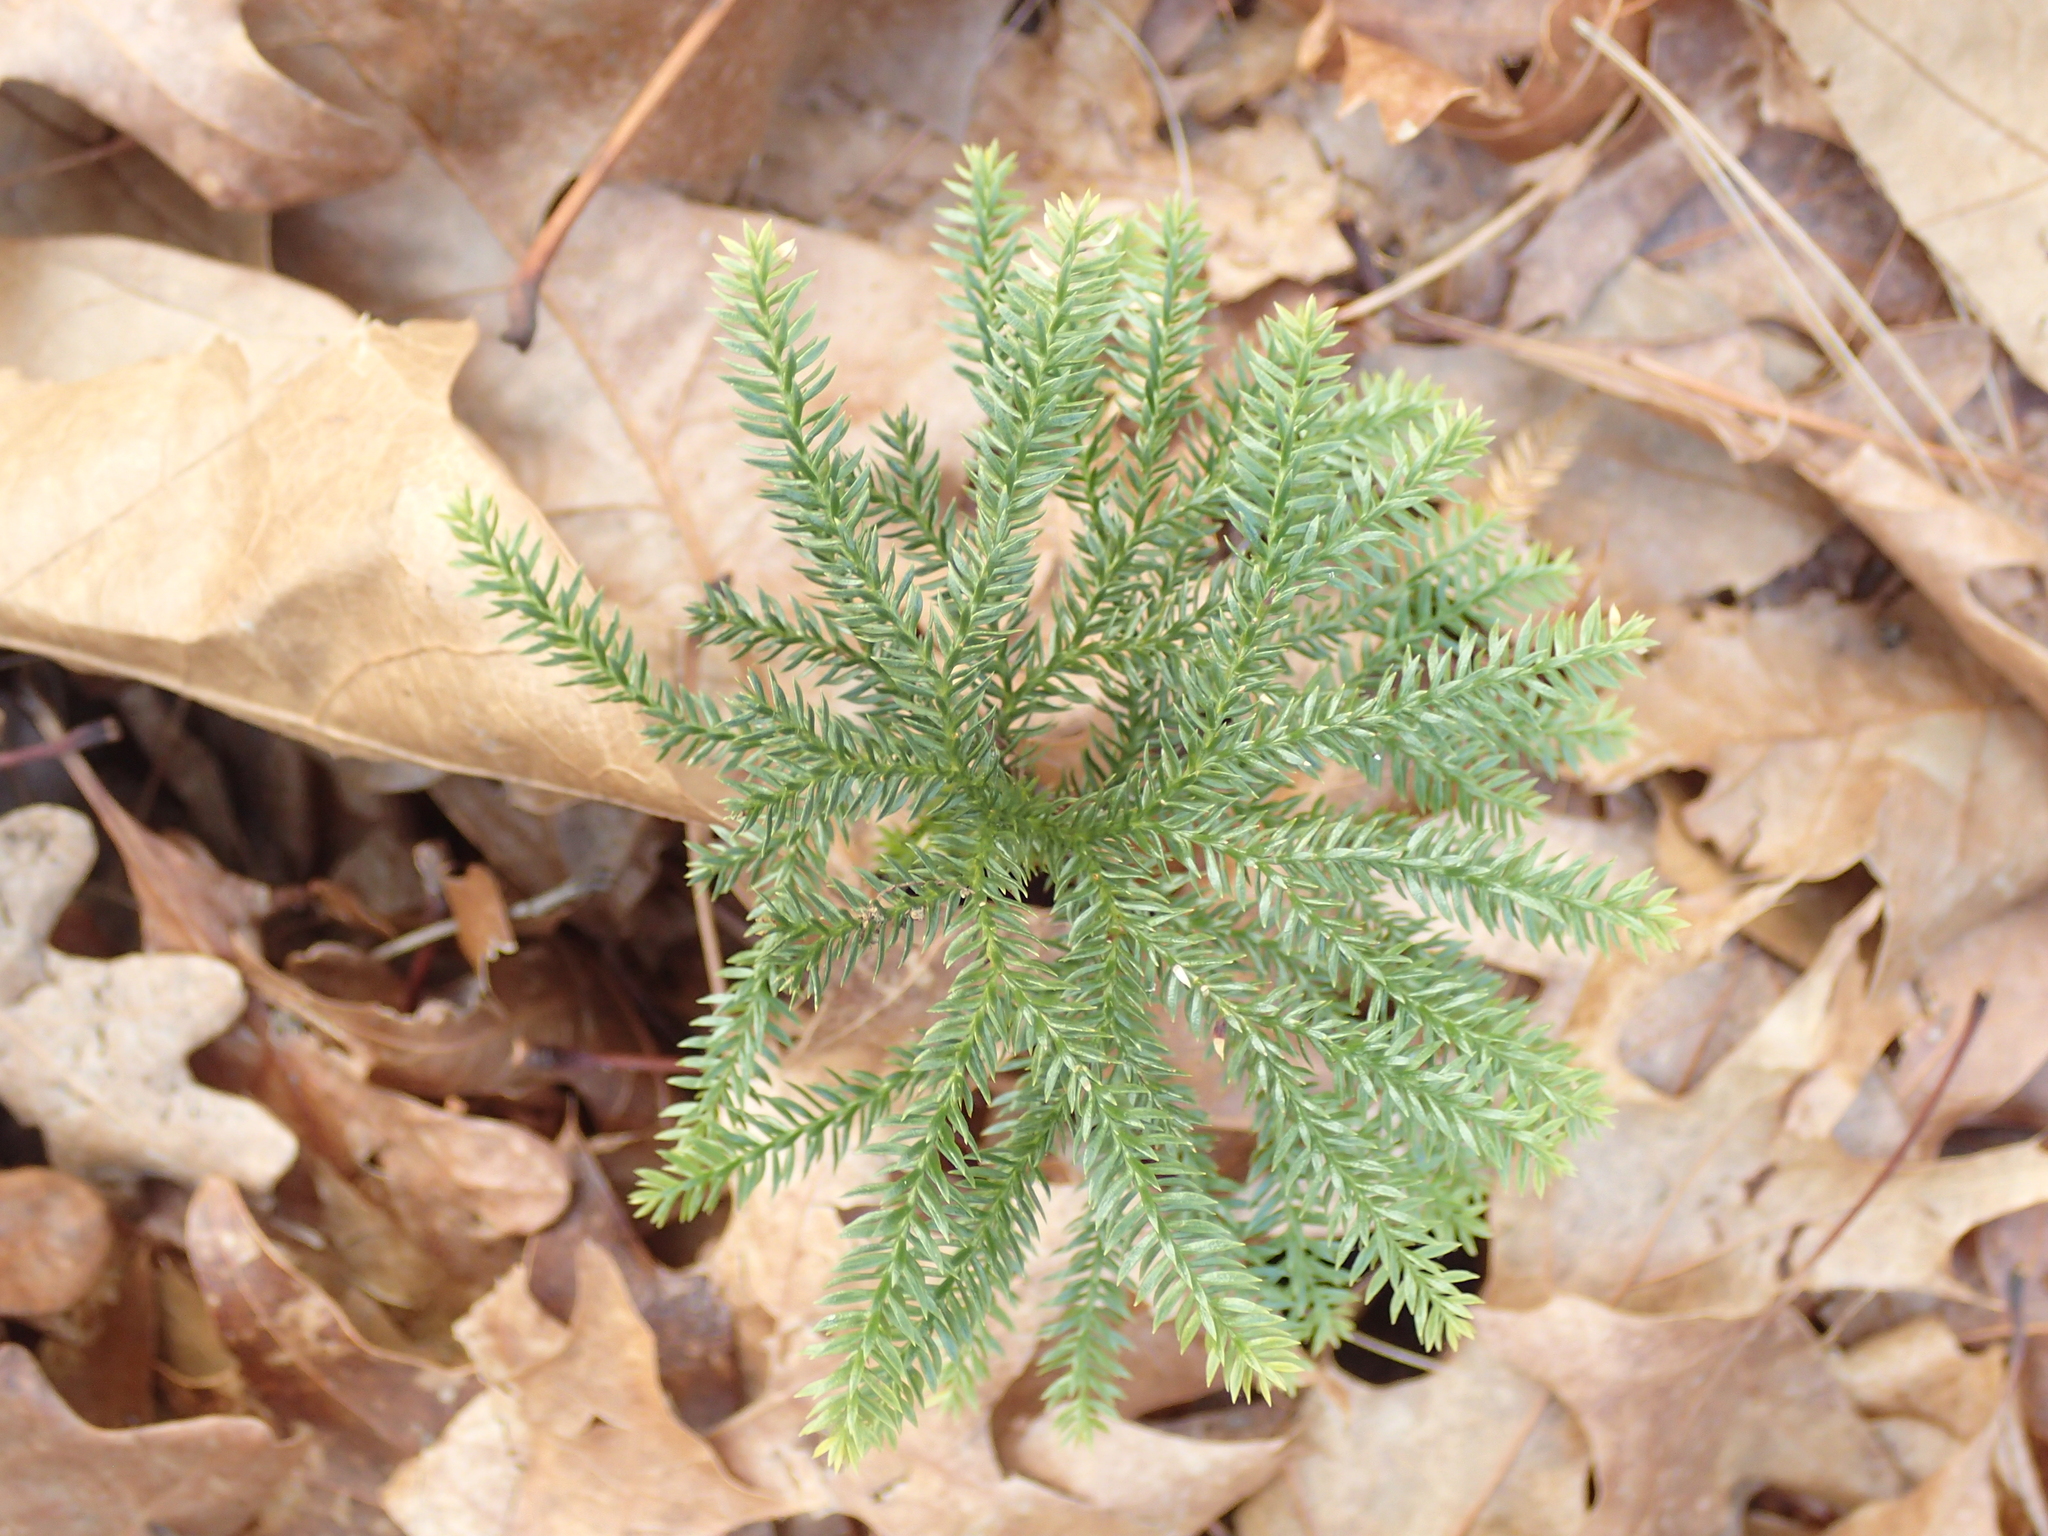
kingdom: Plantae
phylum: Tracheophyta
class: Lycopodiopsida
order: Lycopodiales
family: Lycopodiaceae
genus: Dendrolycopodium
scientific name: Dendrolycopodium obscurum
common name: Common ground-pine
